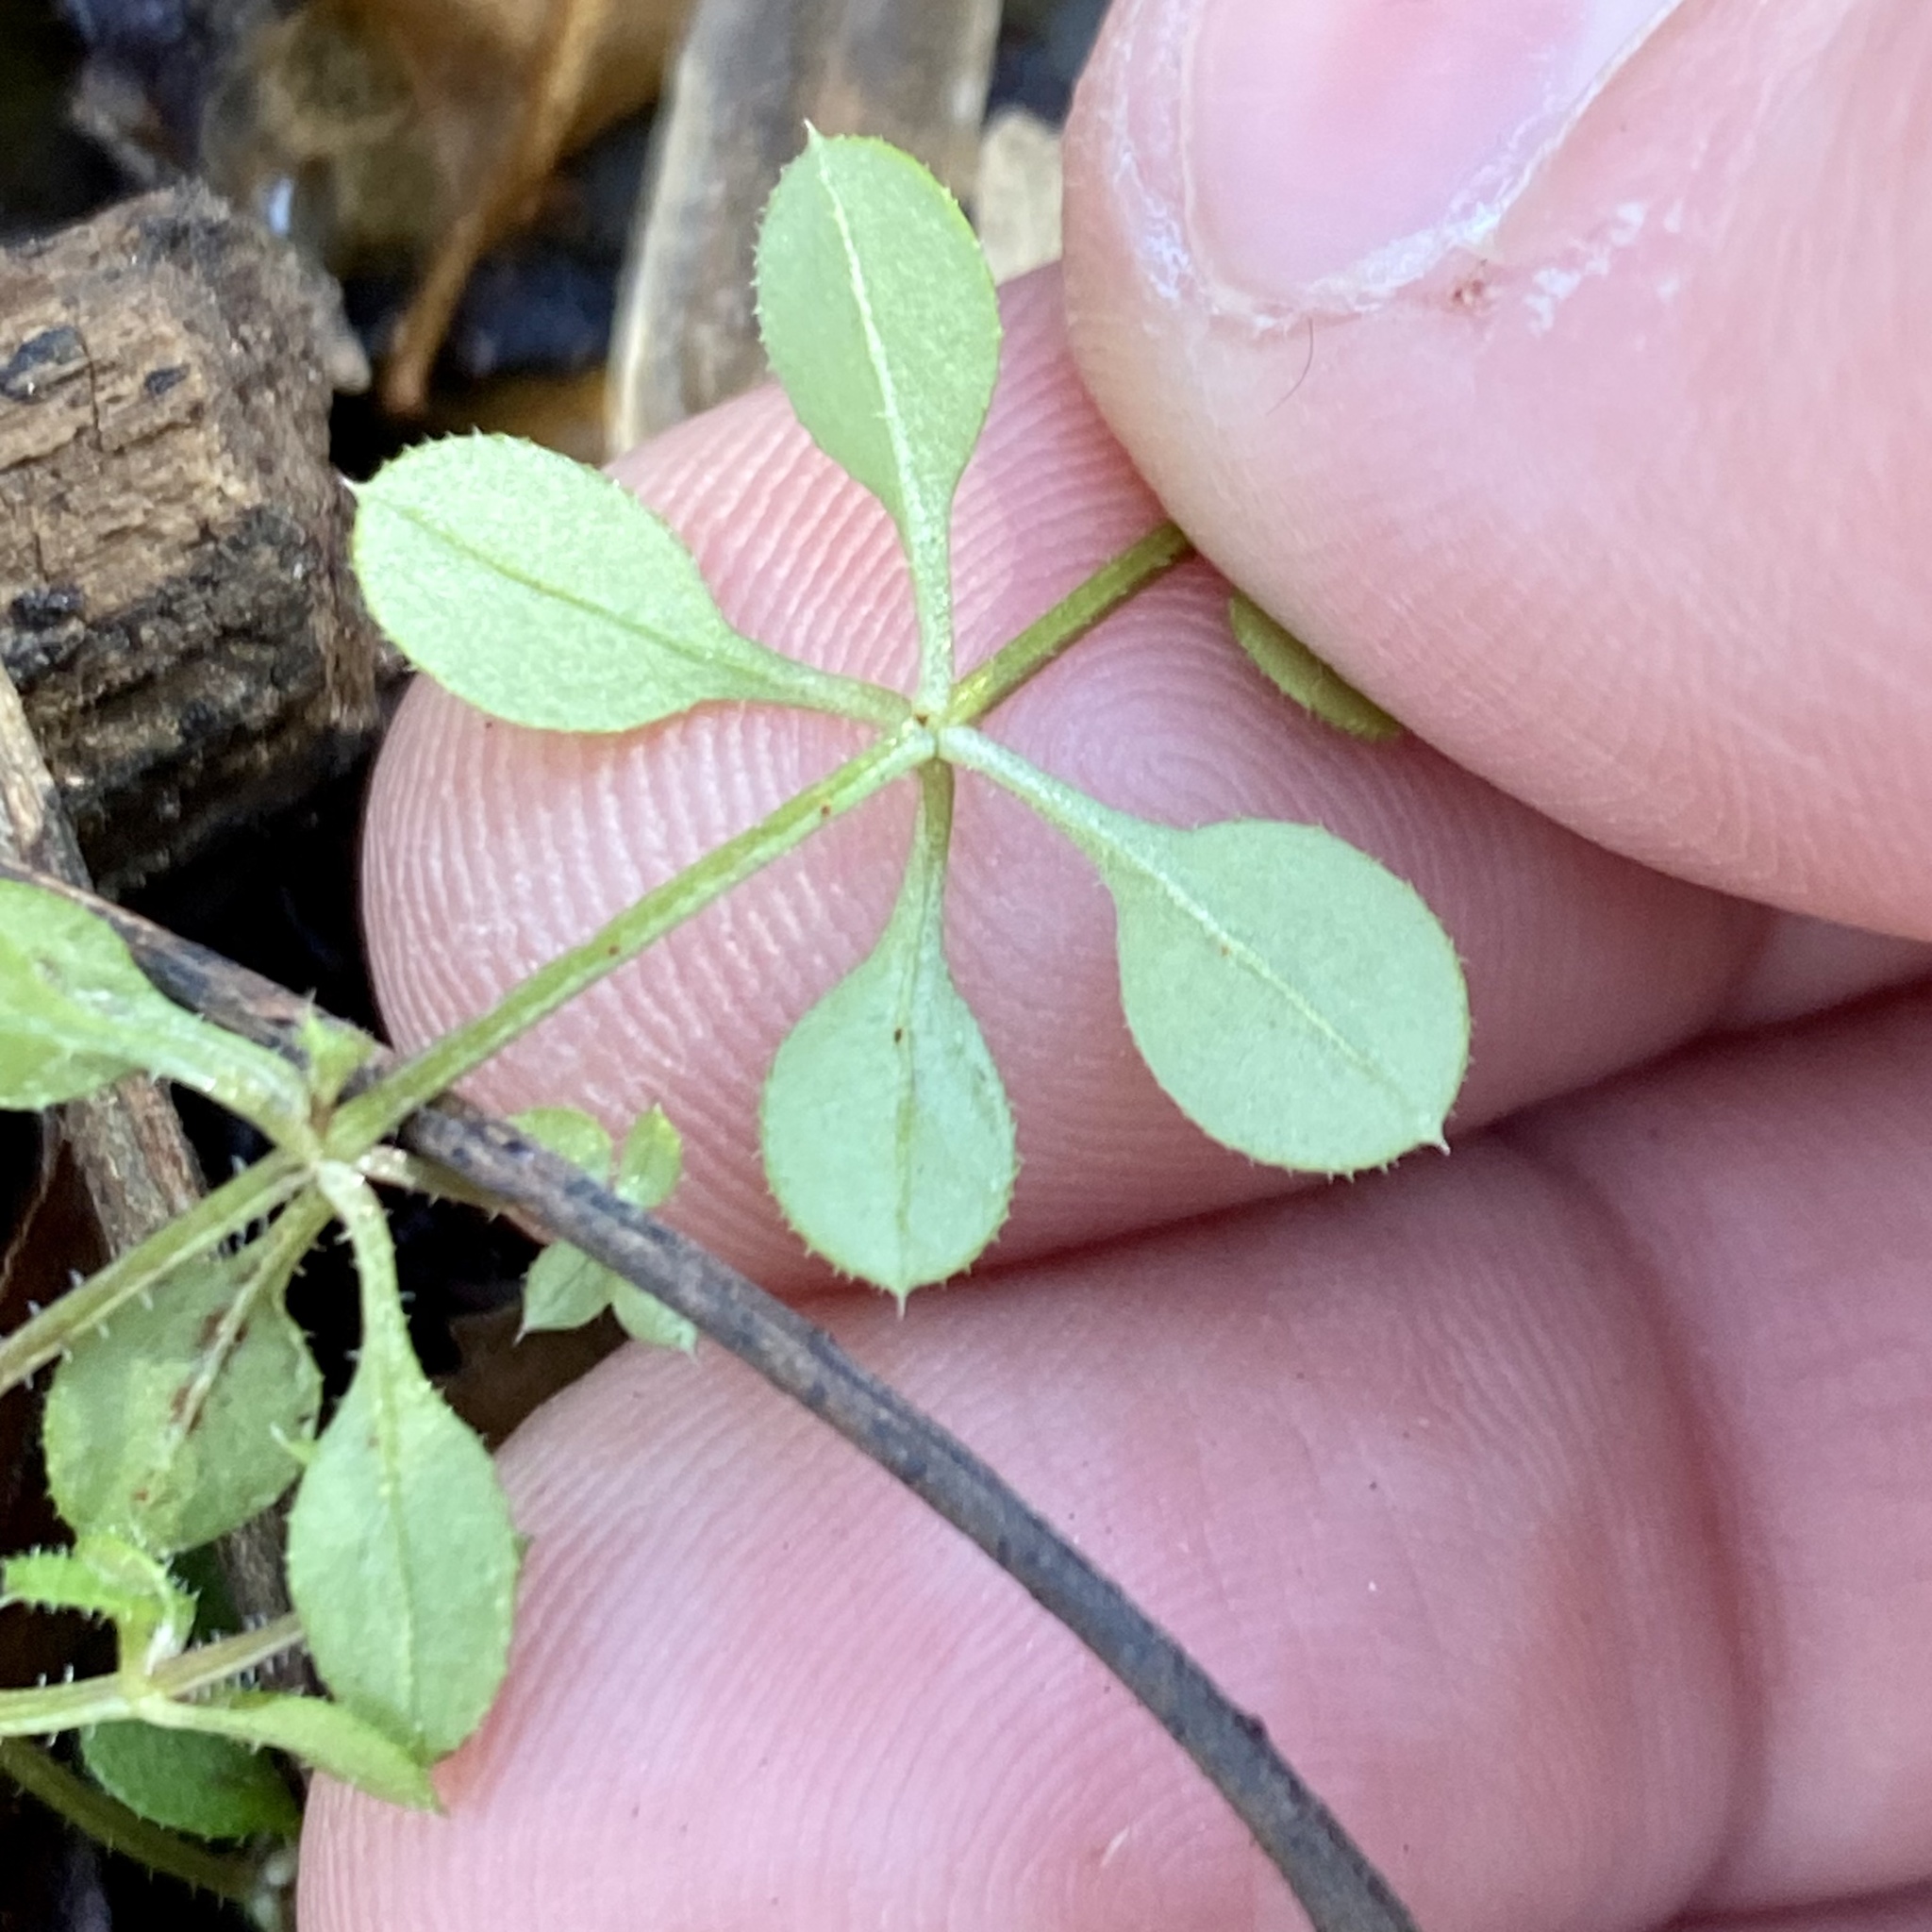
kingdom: Plantae
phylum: Tracheophyta
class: Magnoliopsida
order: Gentianales
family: Rubiaceae
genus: Galium
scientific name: Galium aparine
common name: Cleavers
